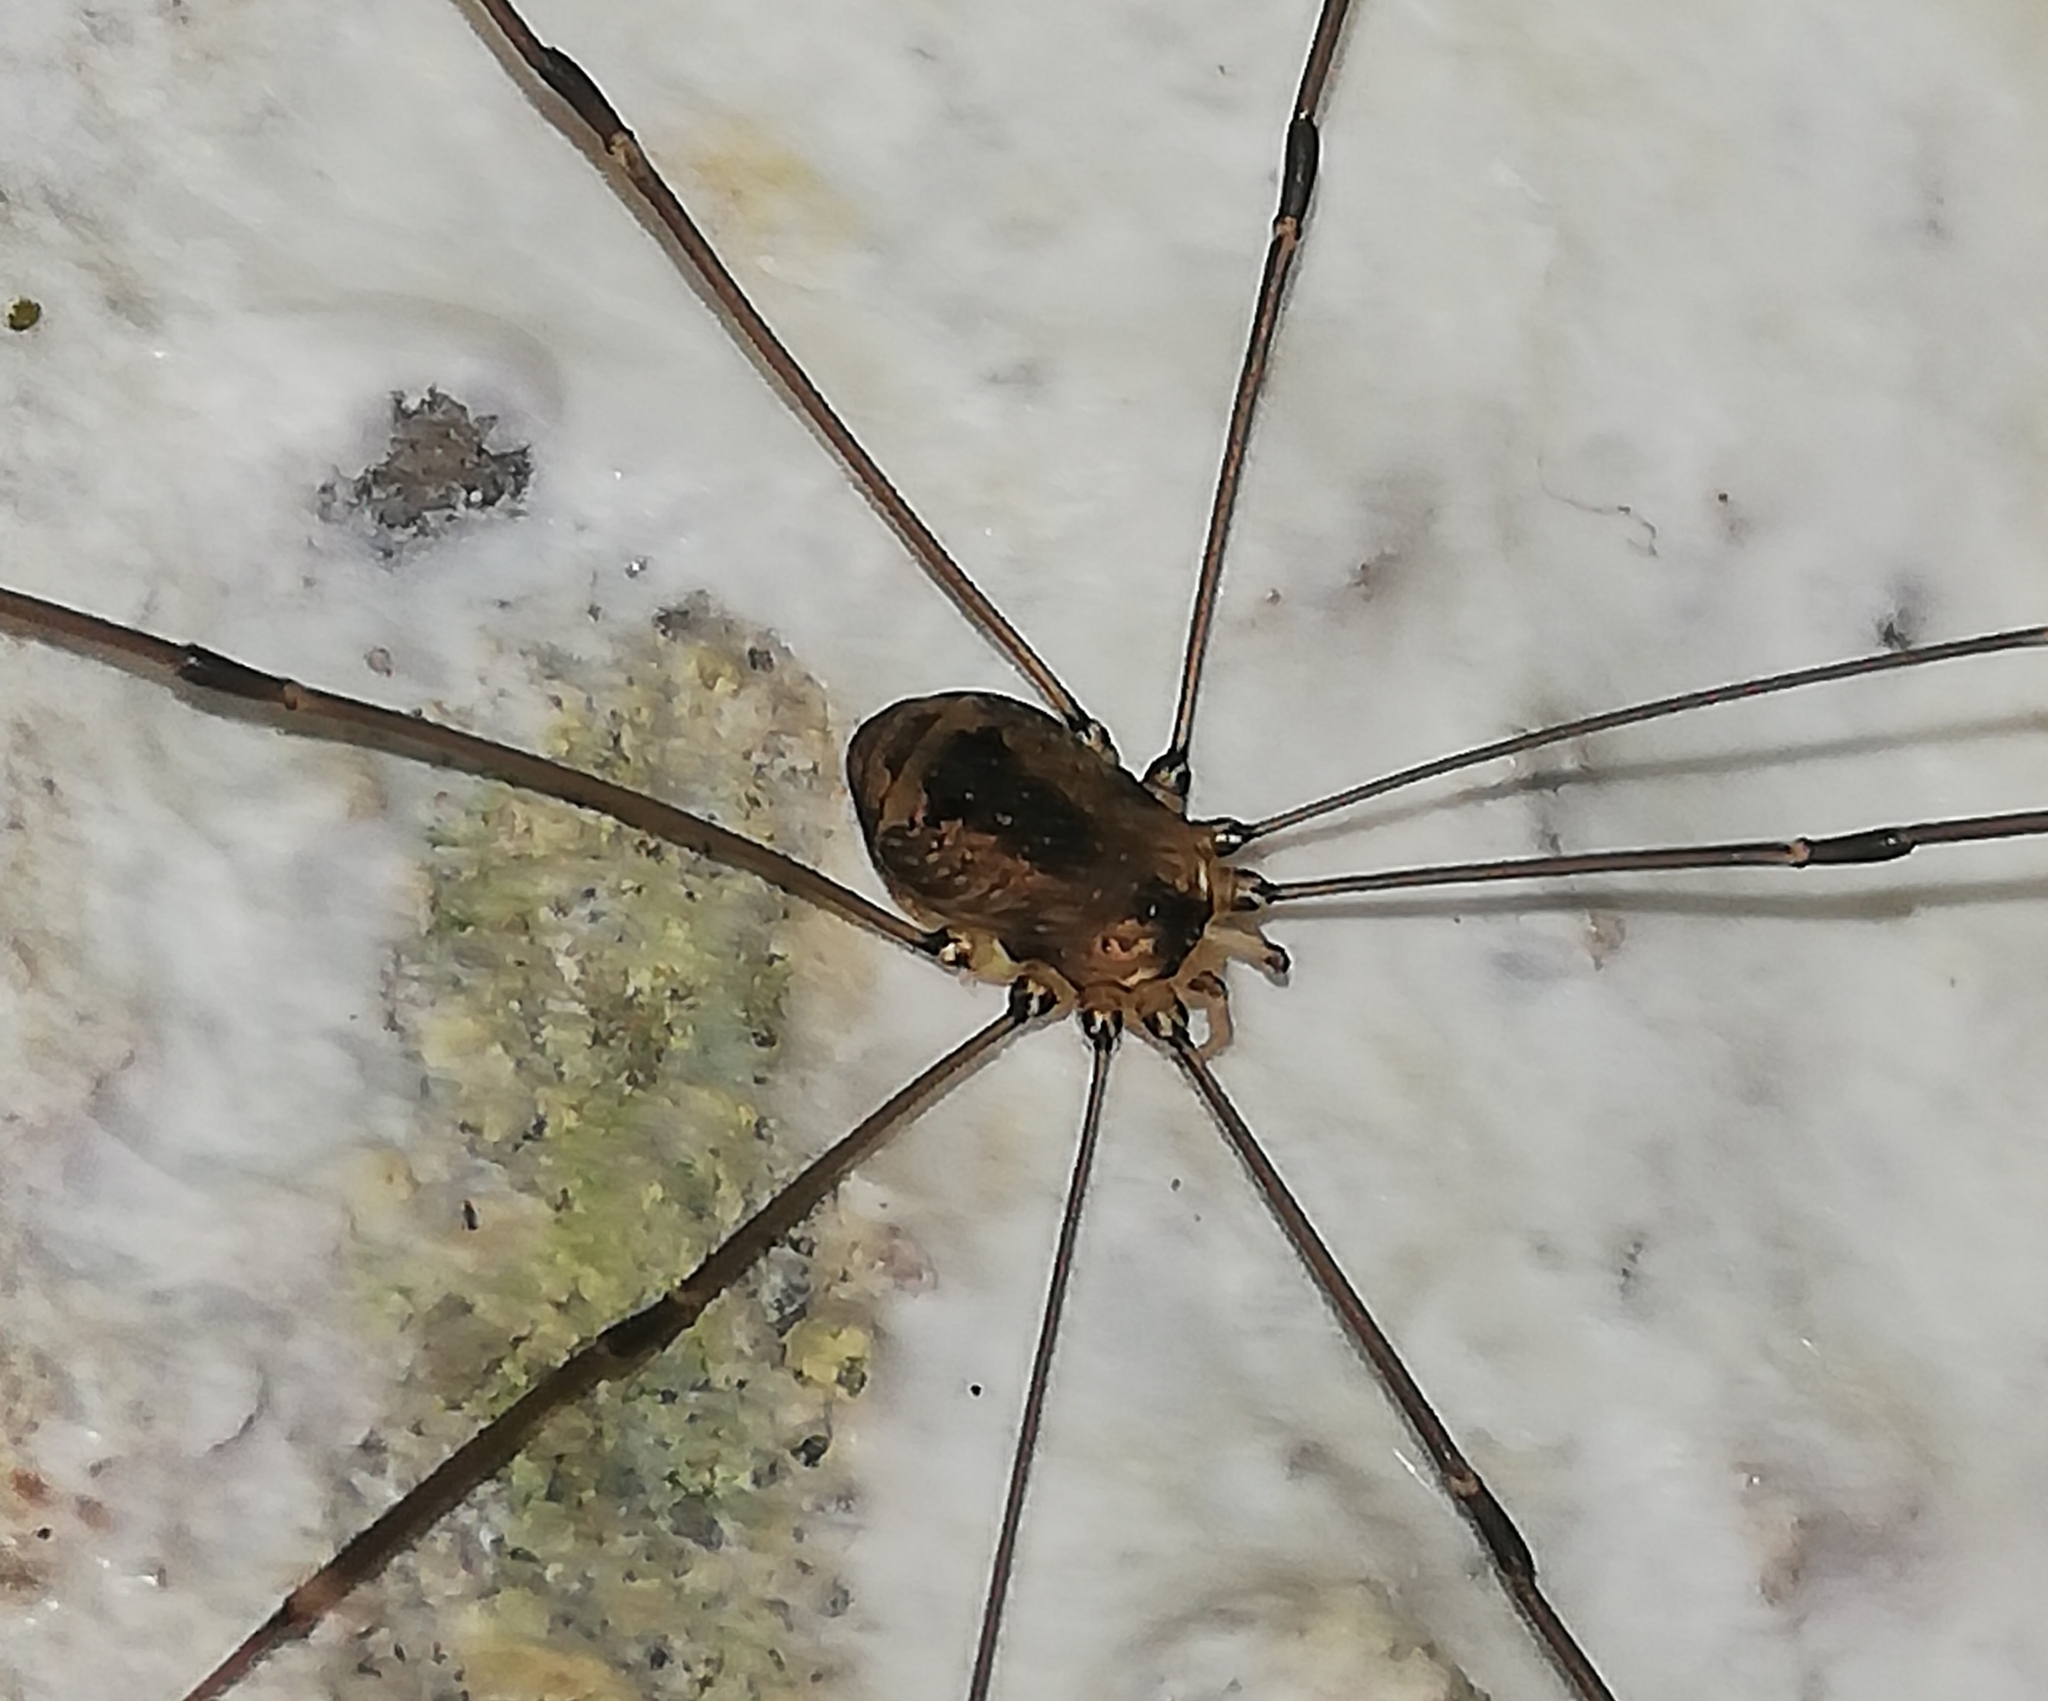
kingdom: Animalia
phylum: Arthropoda
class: Arachnida
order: Opiliones
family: Sclerosomatidae
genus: Leiobunum
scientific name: Leiobunum rotundum
